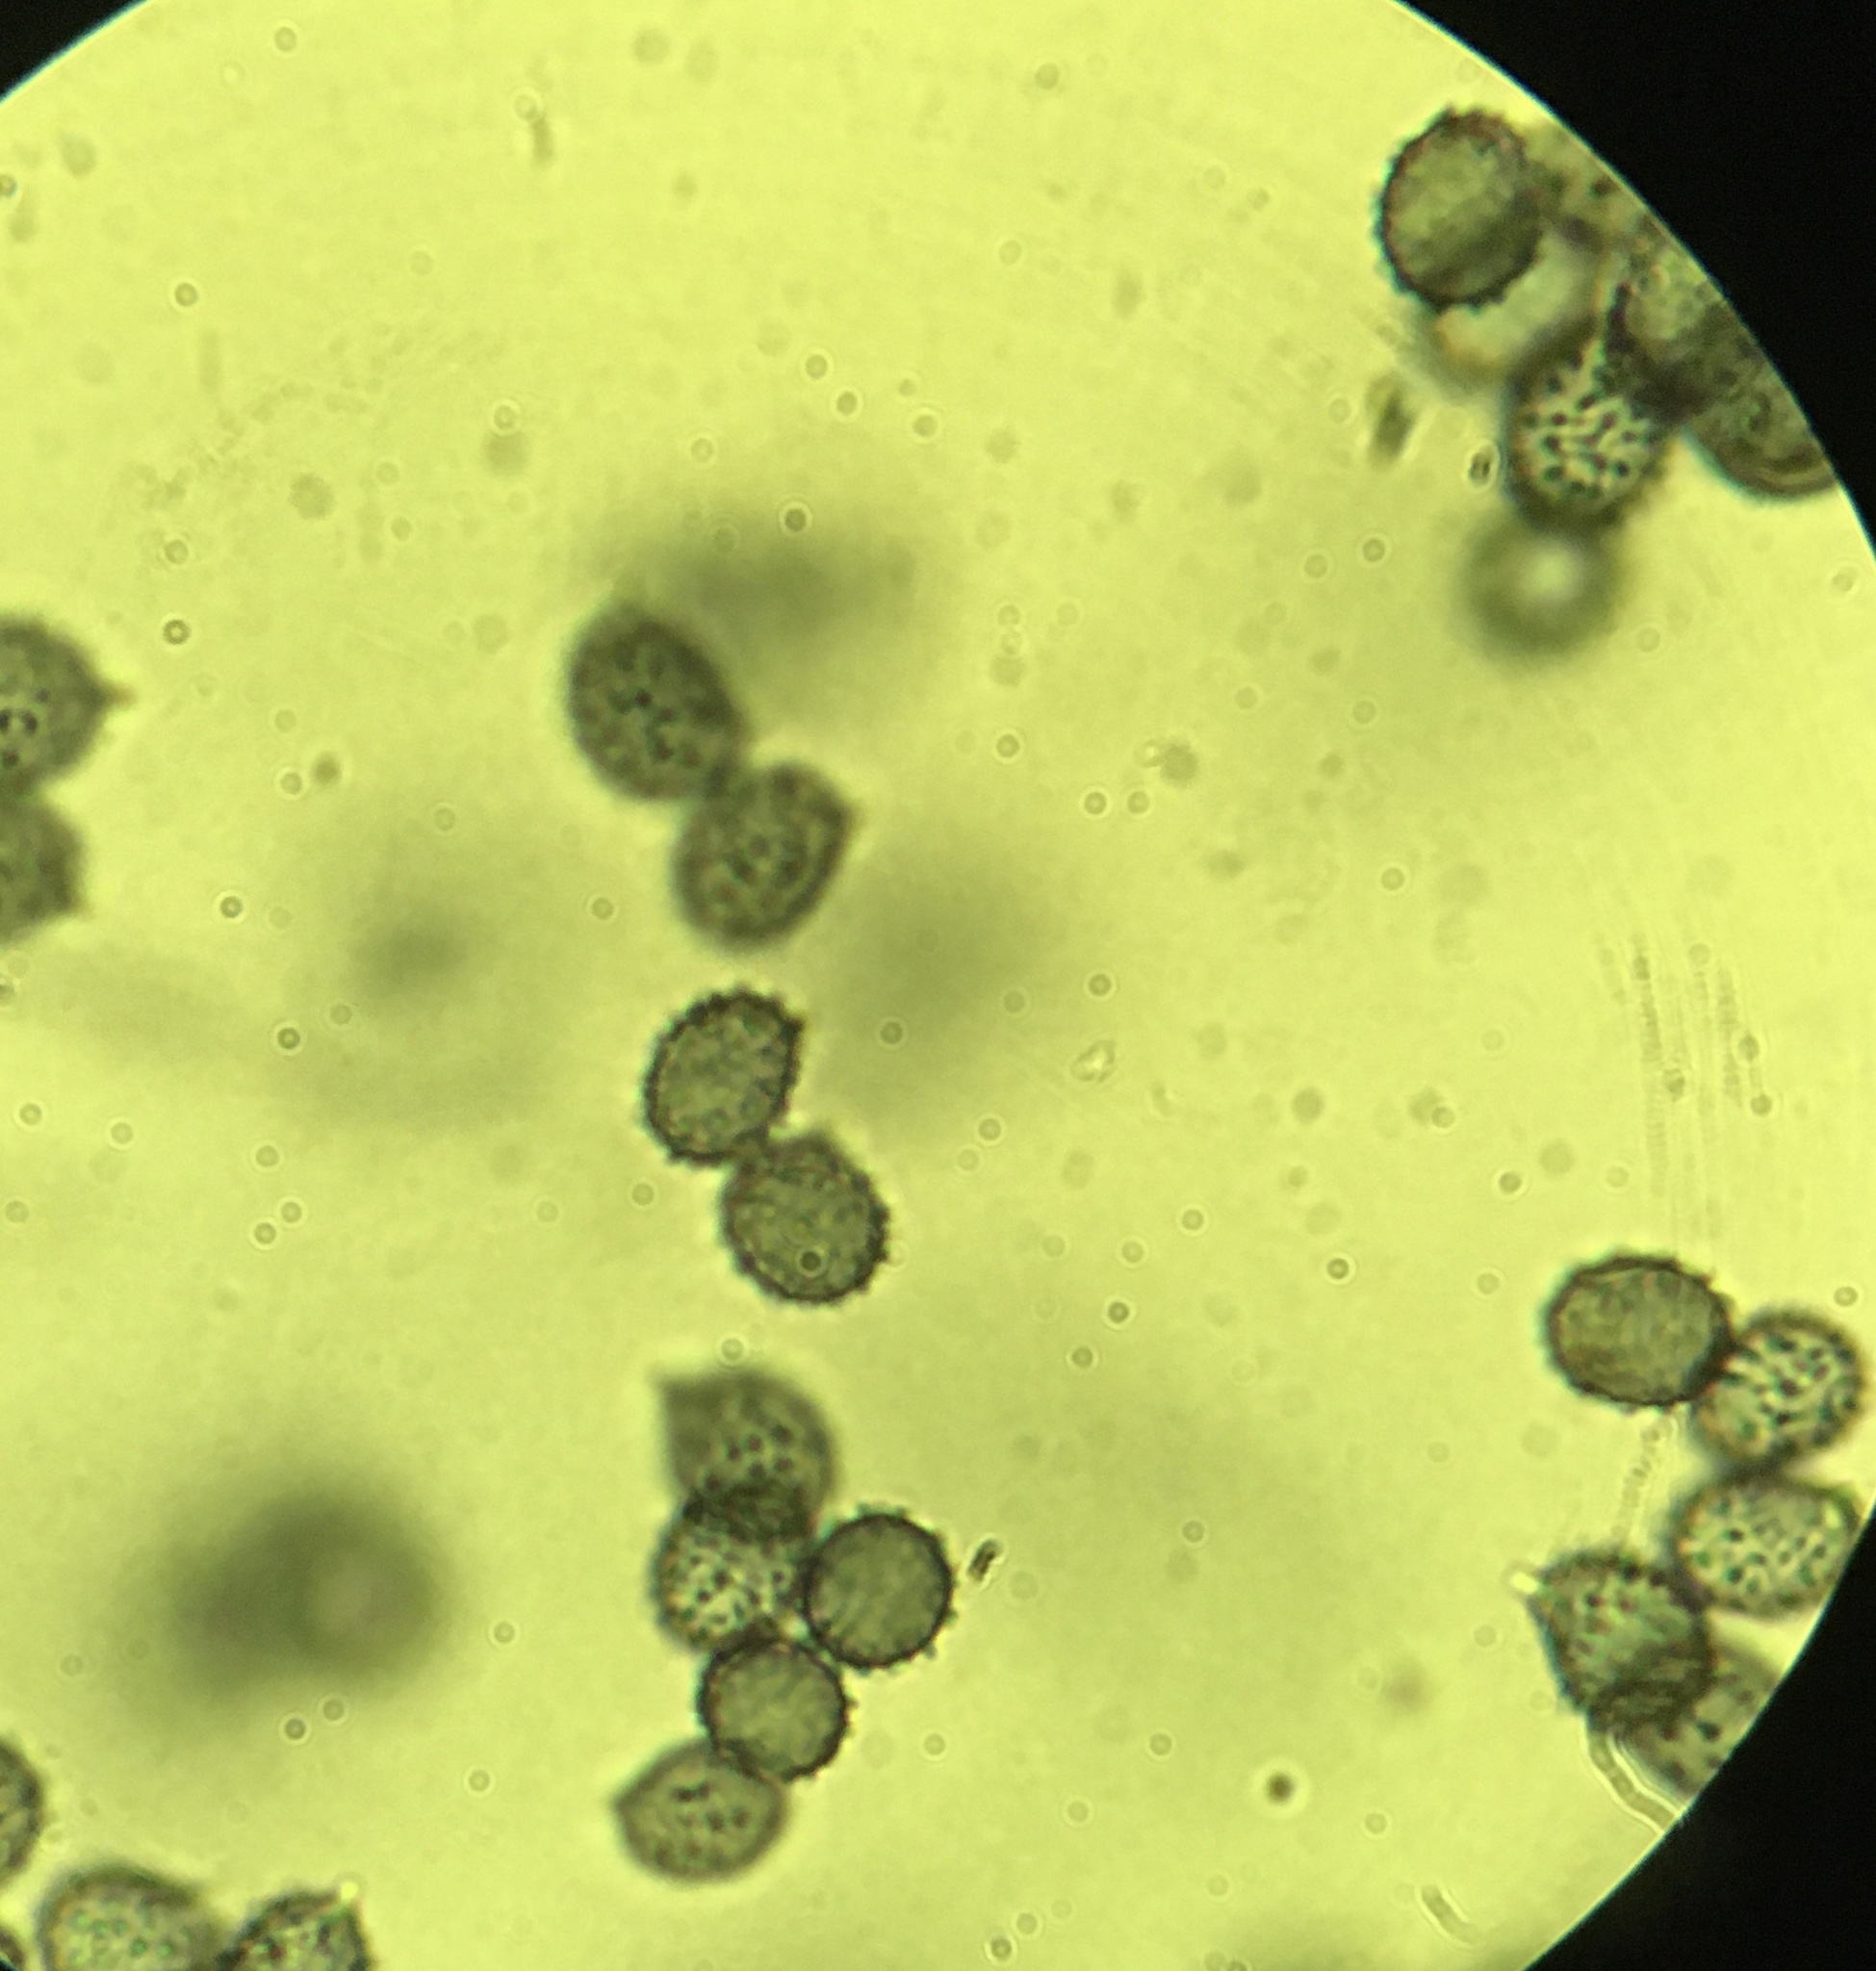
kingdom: Fungi
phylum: Basidiomycota
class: Agaricomycetes
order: Russulales
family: Russulaceae
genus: Russula
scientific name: Russula cyanoxantha
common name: Charcoal burner
